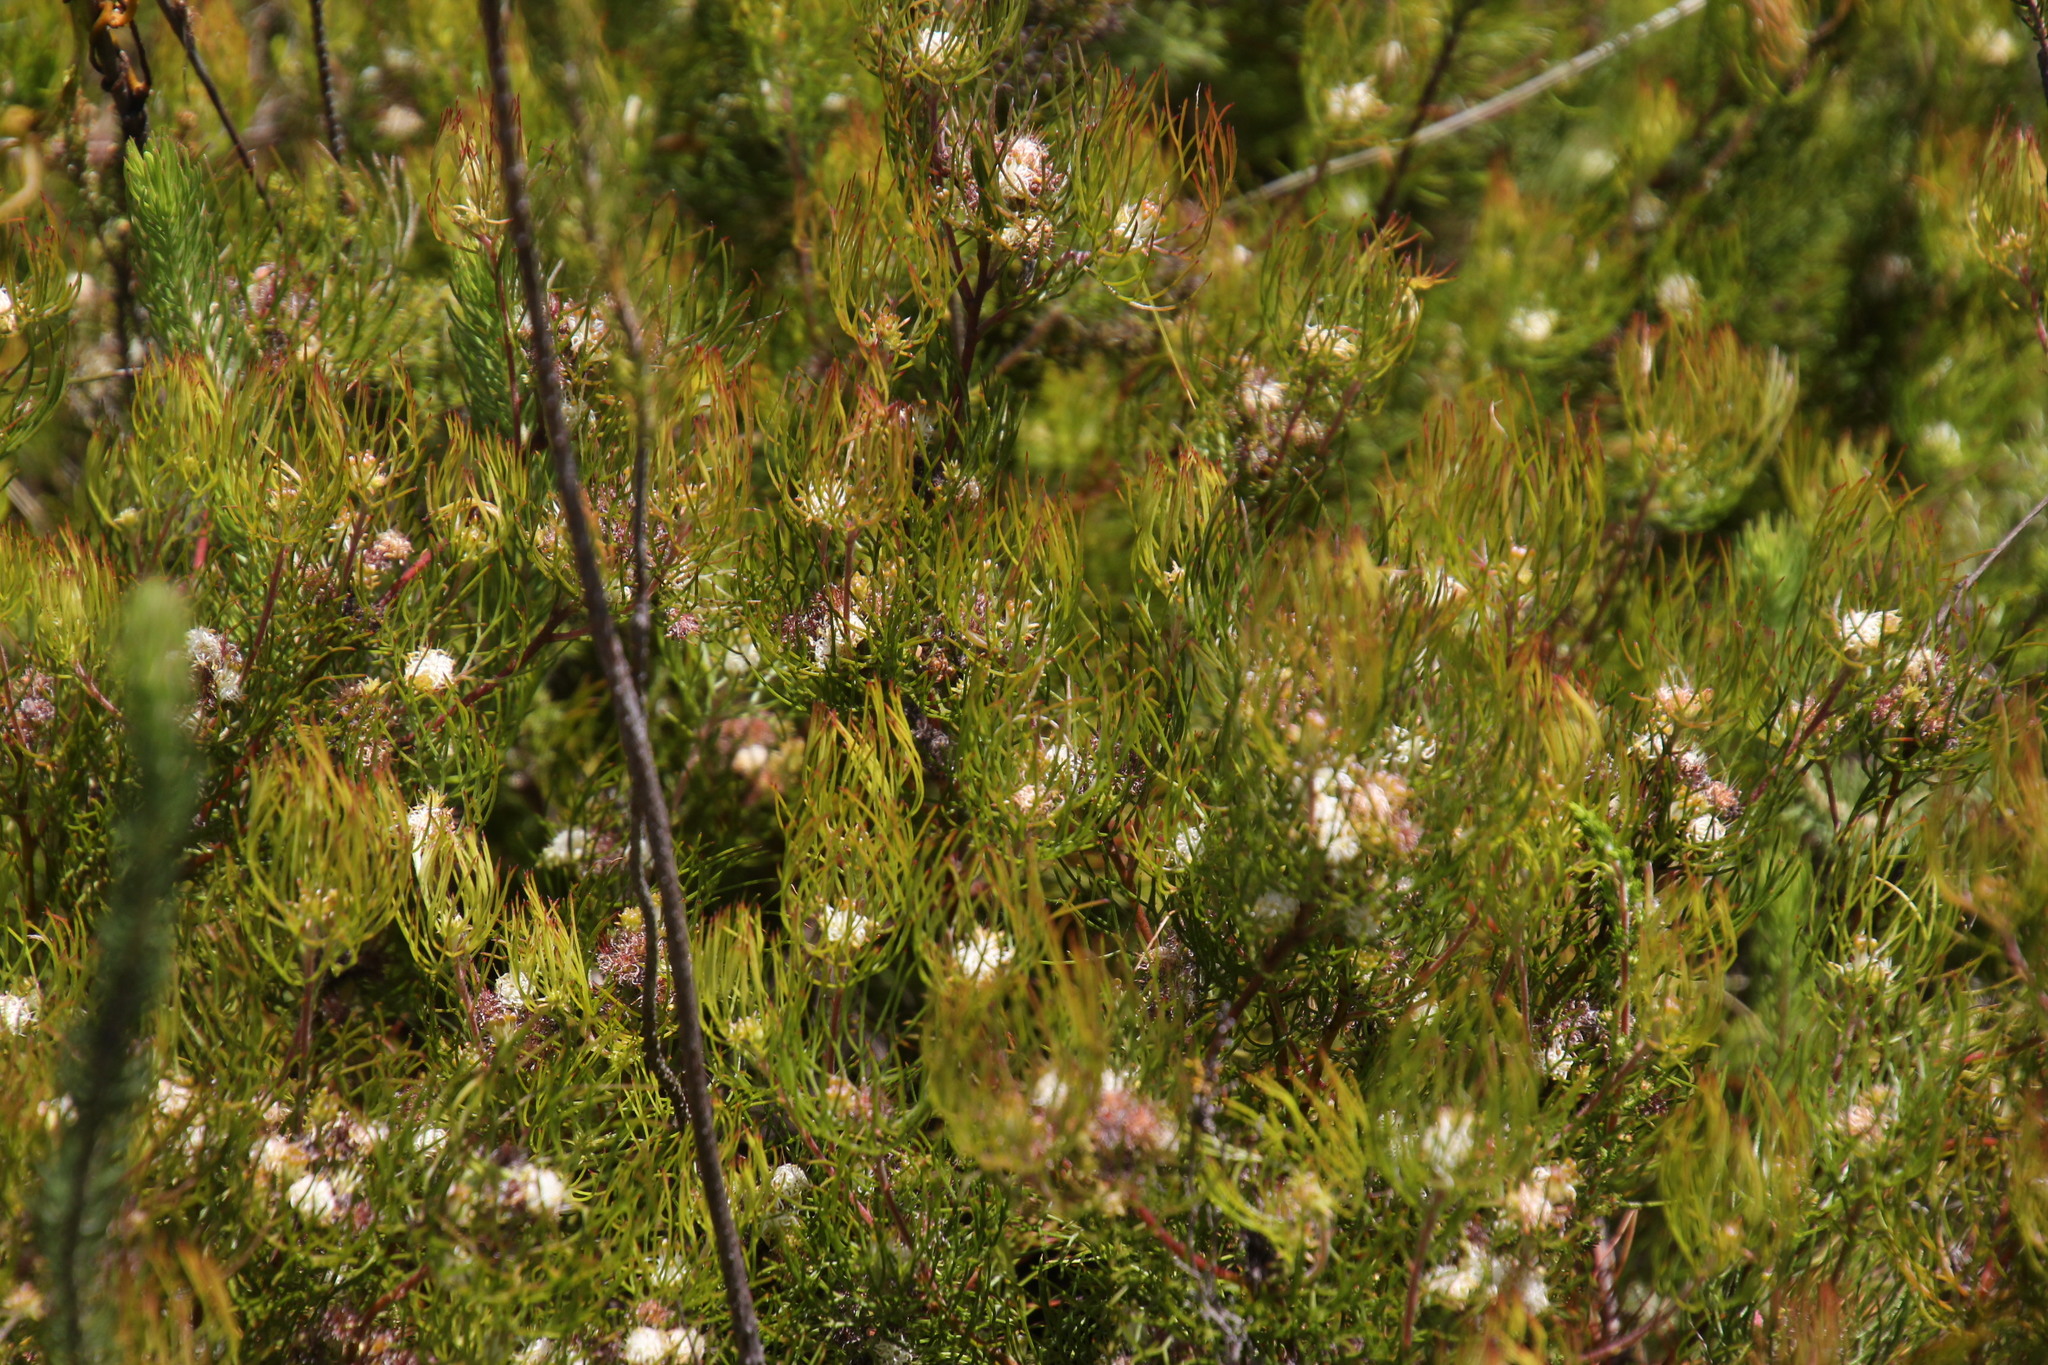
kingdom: Plantae
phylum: Tracheophyta
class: Magnoliopsida
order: Proteales
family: Proteaceae
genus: Serruria
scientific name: Serruria inconspicua
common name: Cryptic spiderhead
